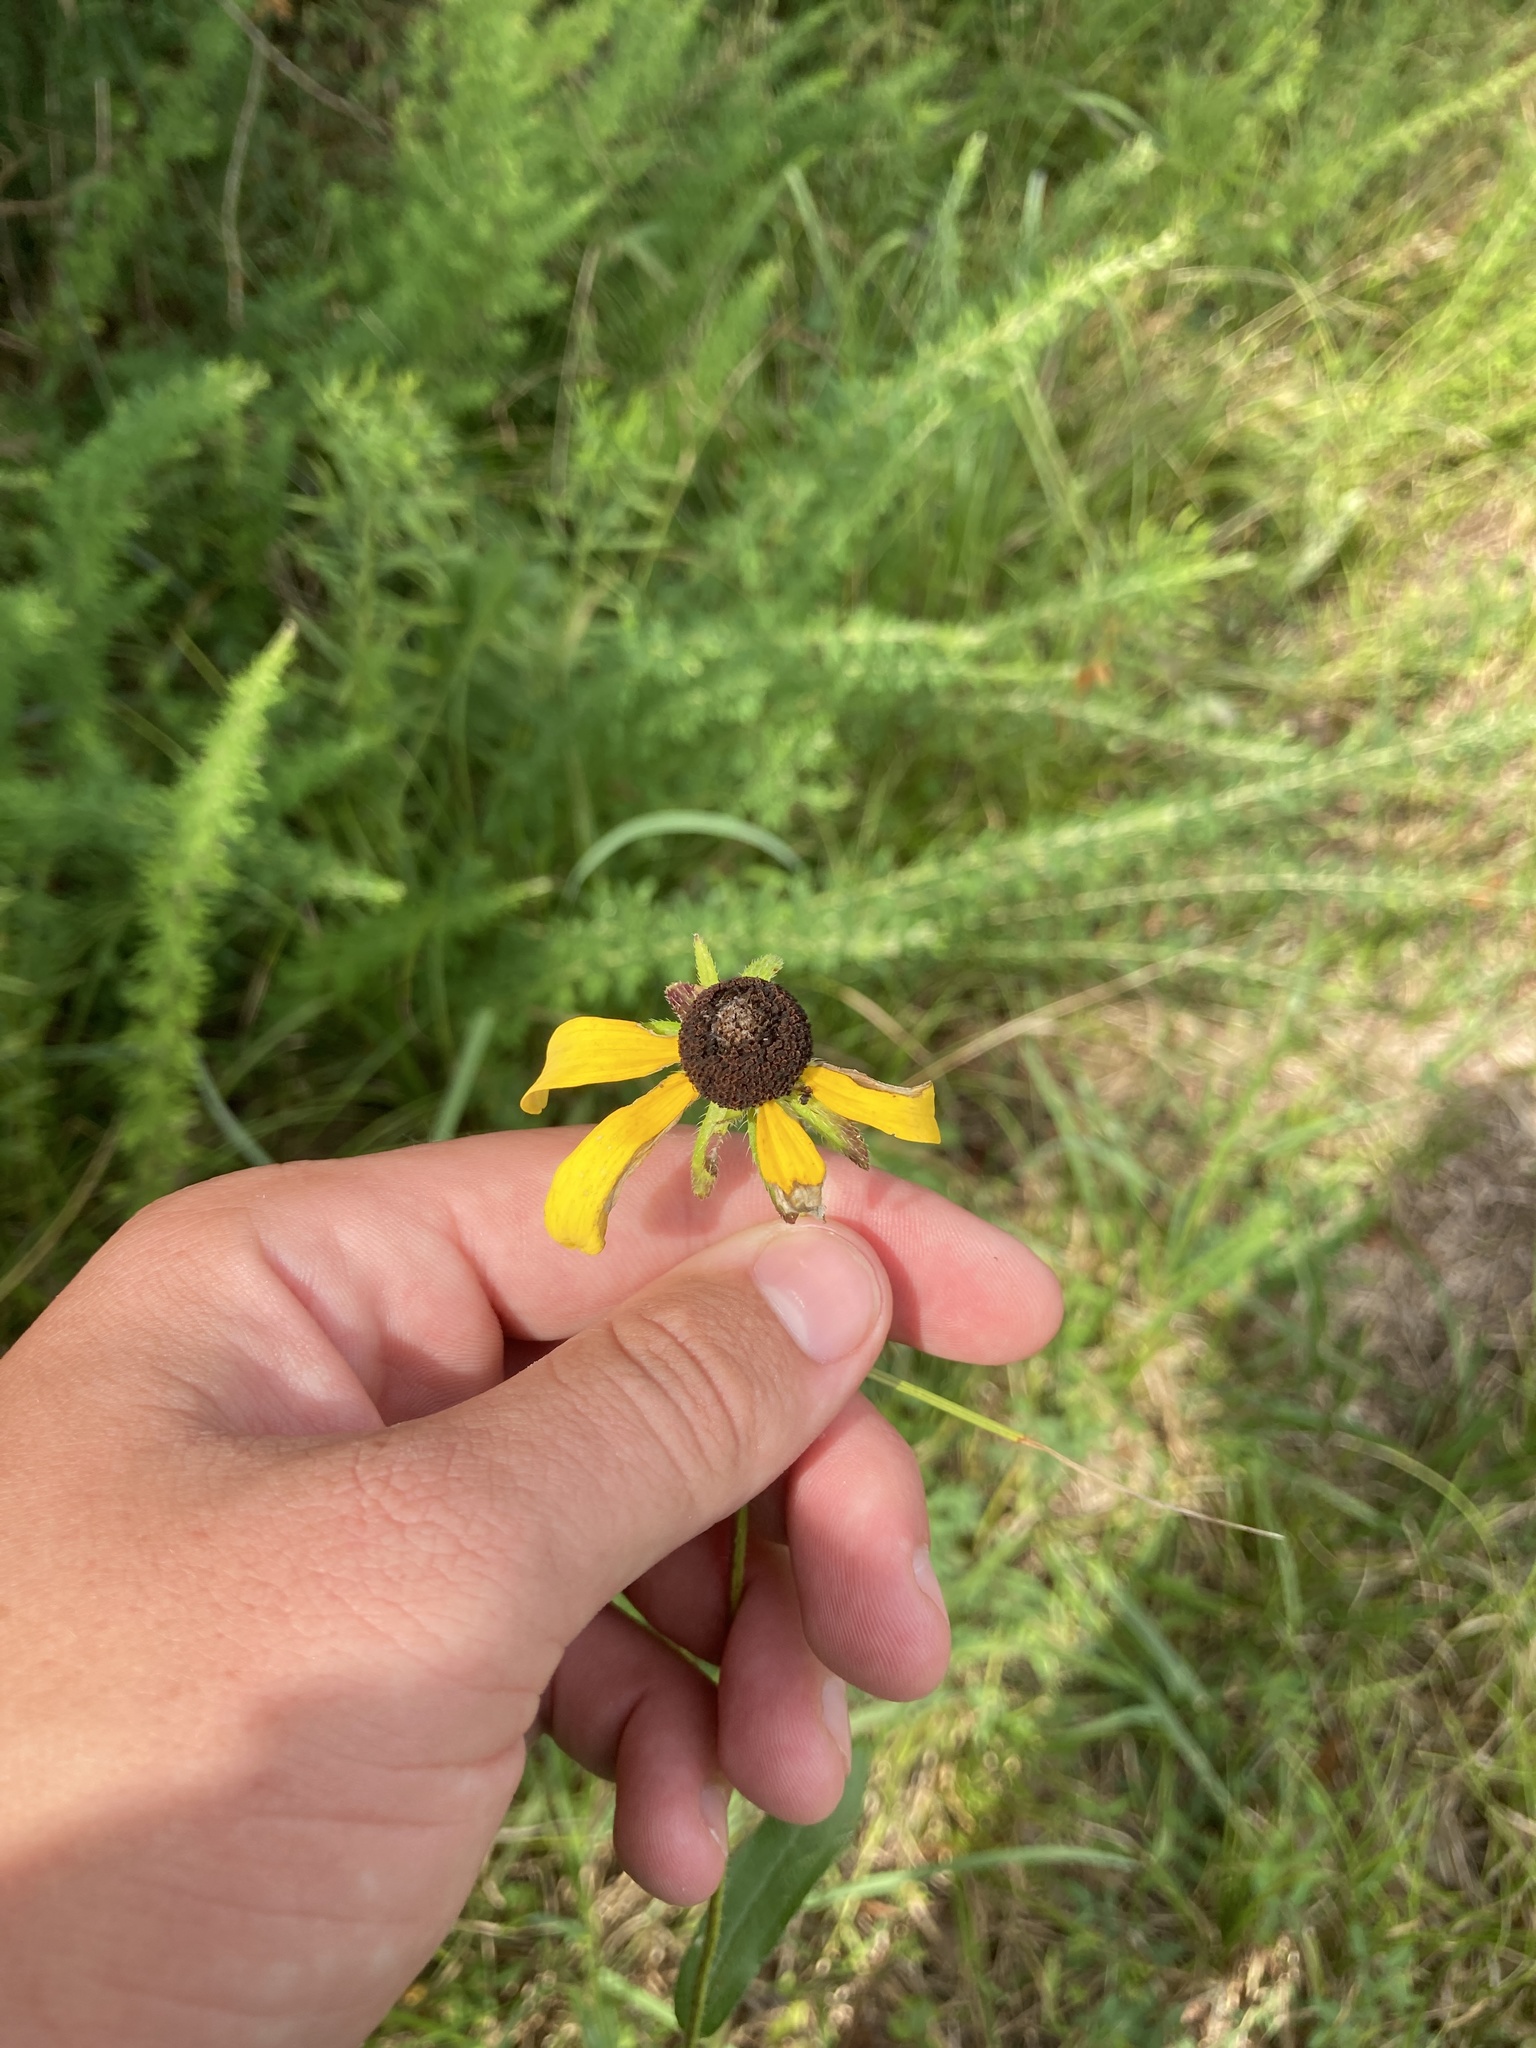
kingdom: Plantae
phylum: Tracheophyta
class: Magnoliopsida
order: Asterales
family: Asteraceae
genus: Rudbeckia
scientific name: Rudbeckia hirta
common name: Black-eyed-susan
